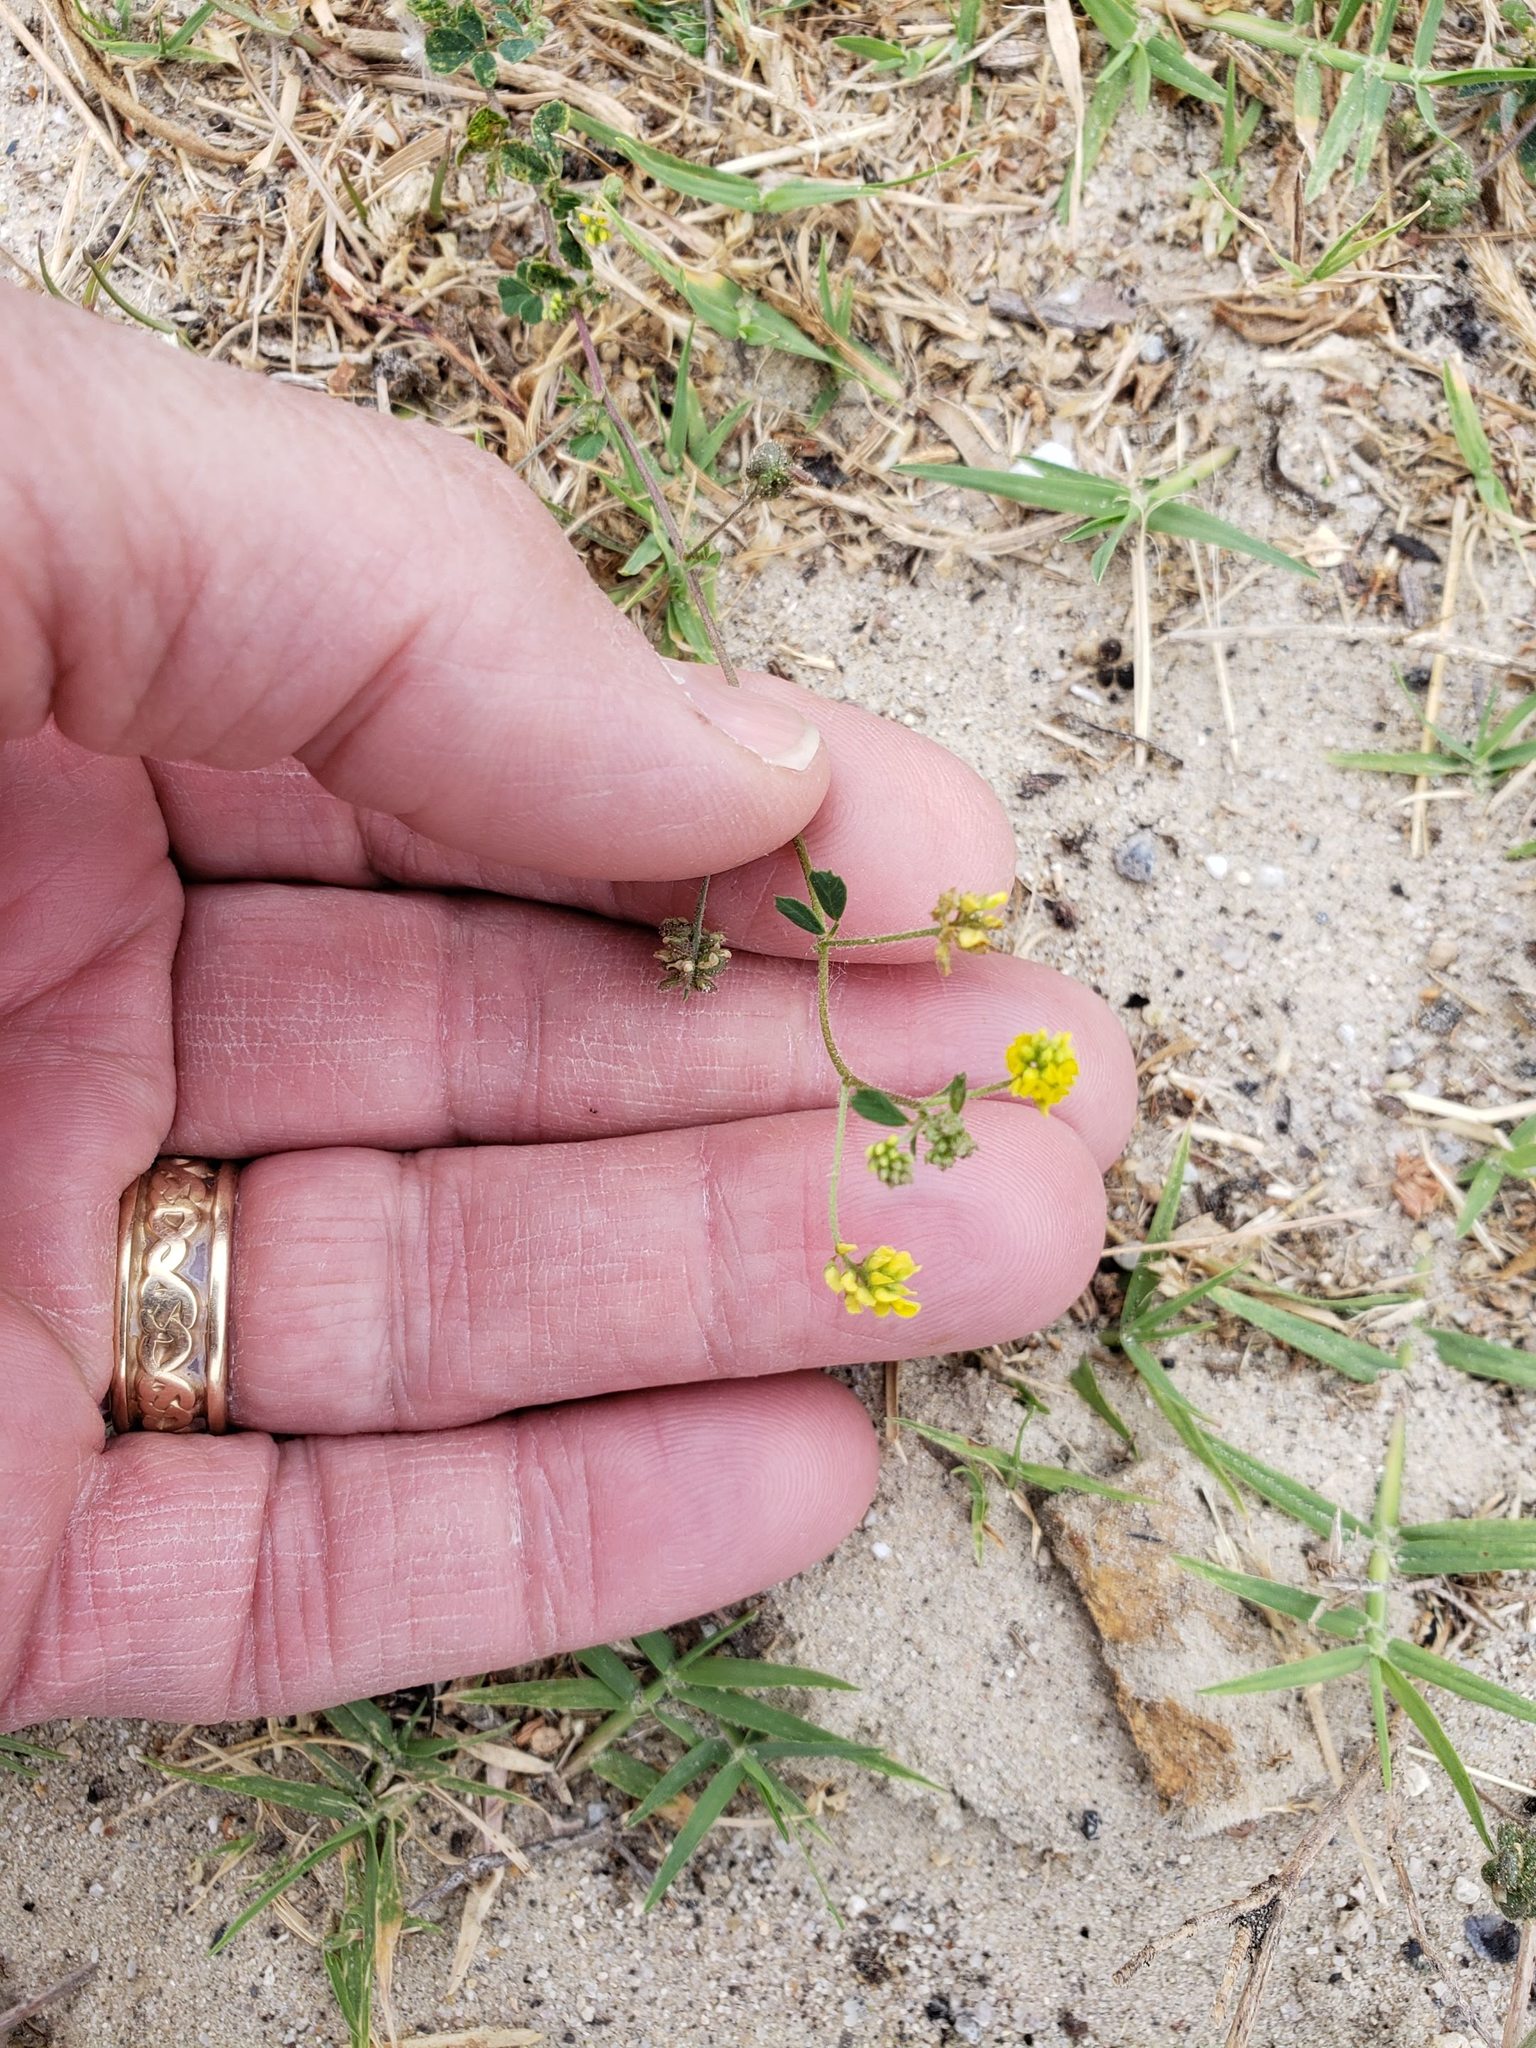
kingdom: Plantae
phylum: Tracheophyta
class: Magnoliopsida
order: Fabales
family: Fabaceae
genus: Medicago
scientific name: Medicago lupulina
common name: Black medick
